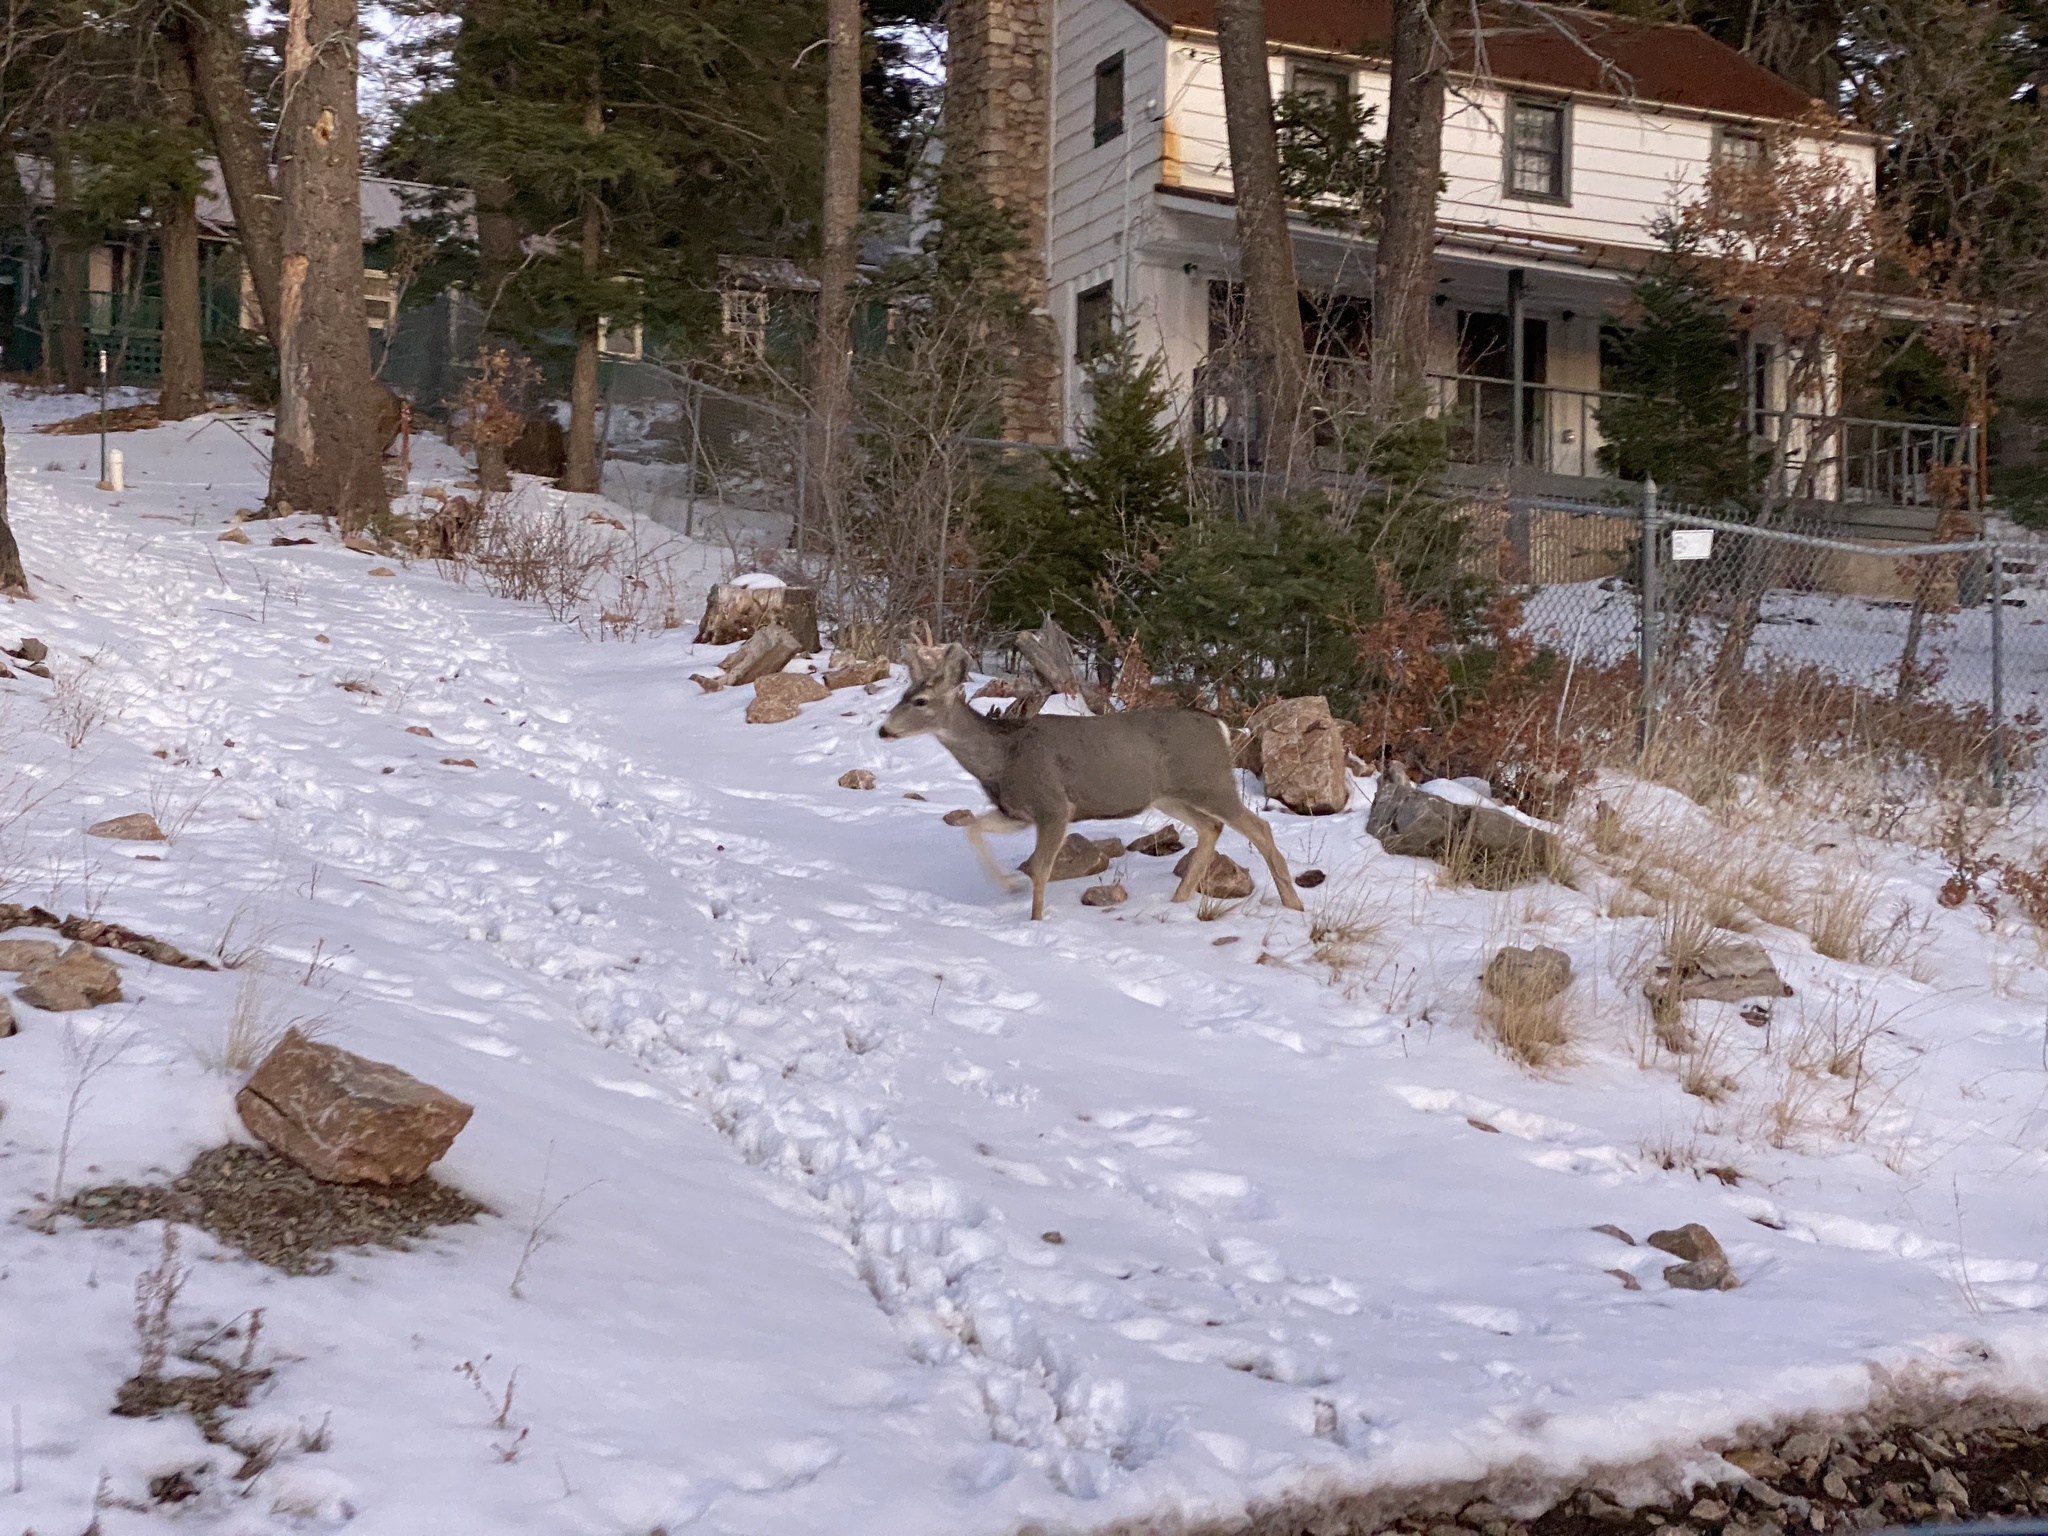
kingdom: Animalia
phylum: Chordata
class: Mammalia
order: Artiodactyla
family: Cervidae
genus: Odocoileus
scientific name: Odocoileus hemionus
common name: Mule deer
